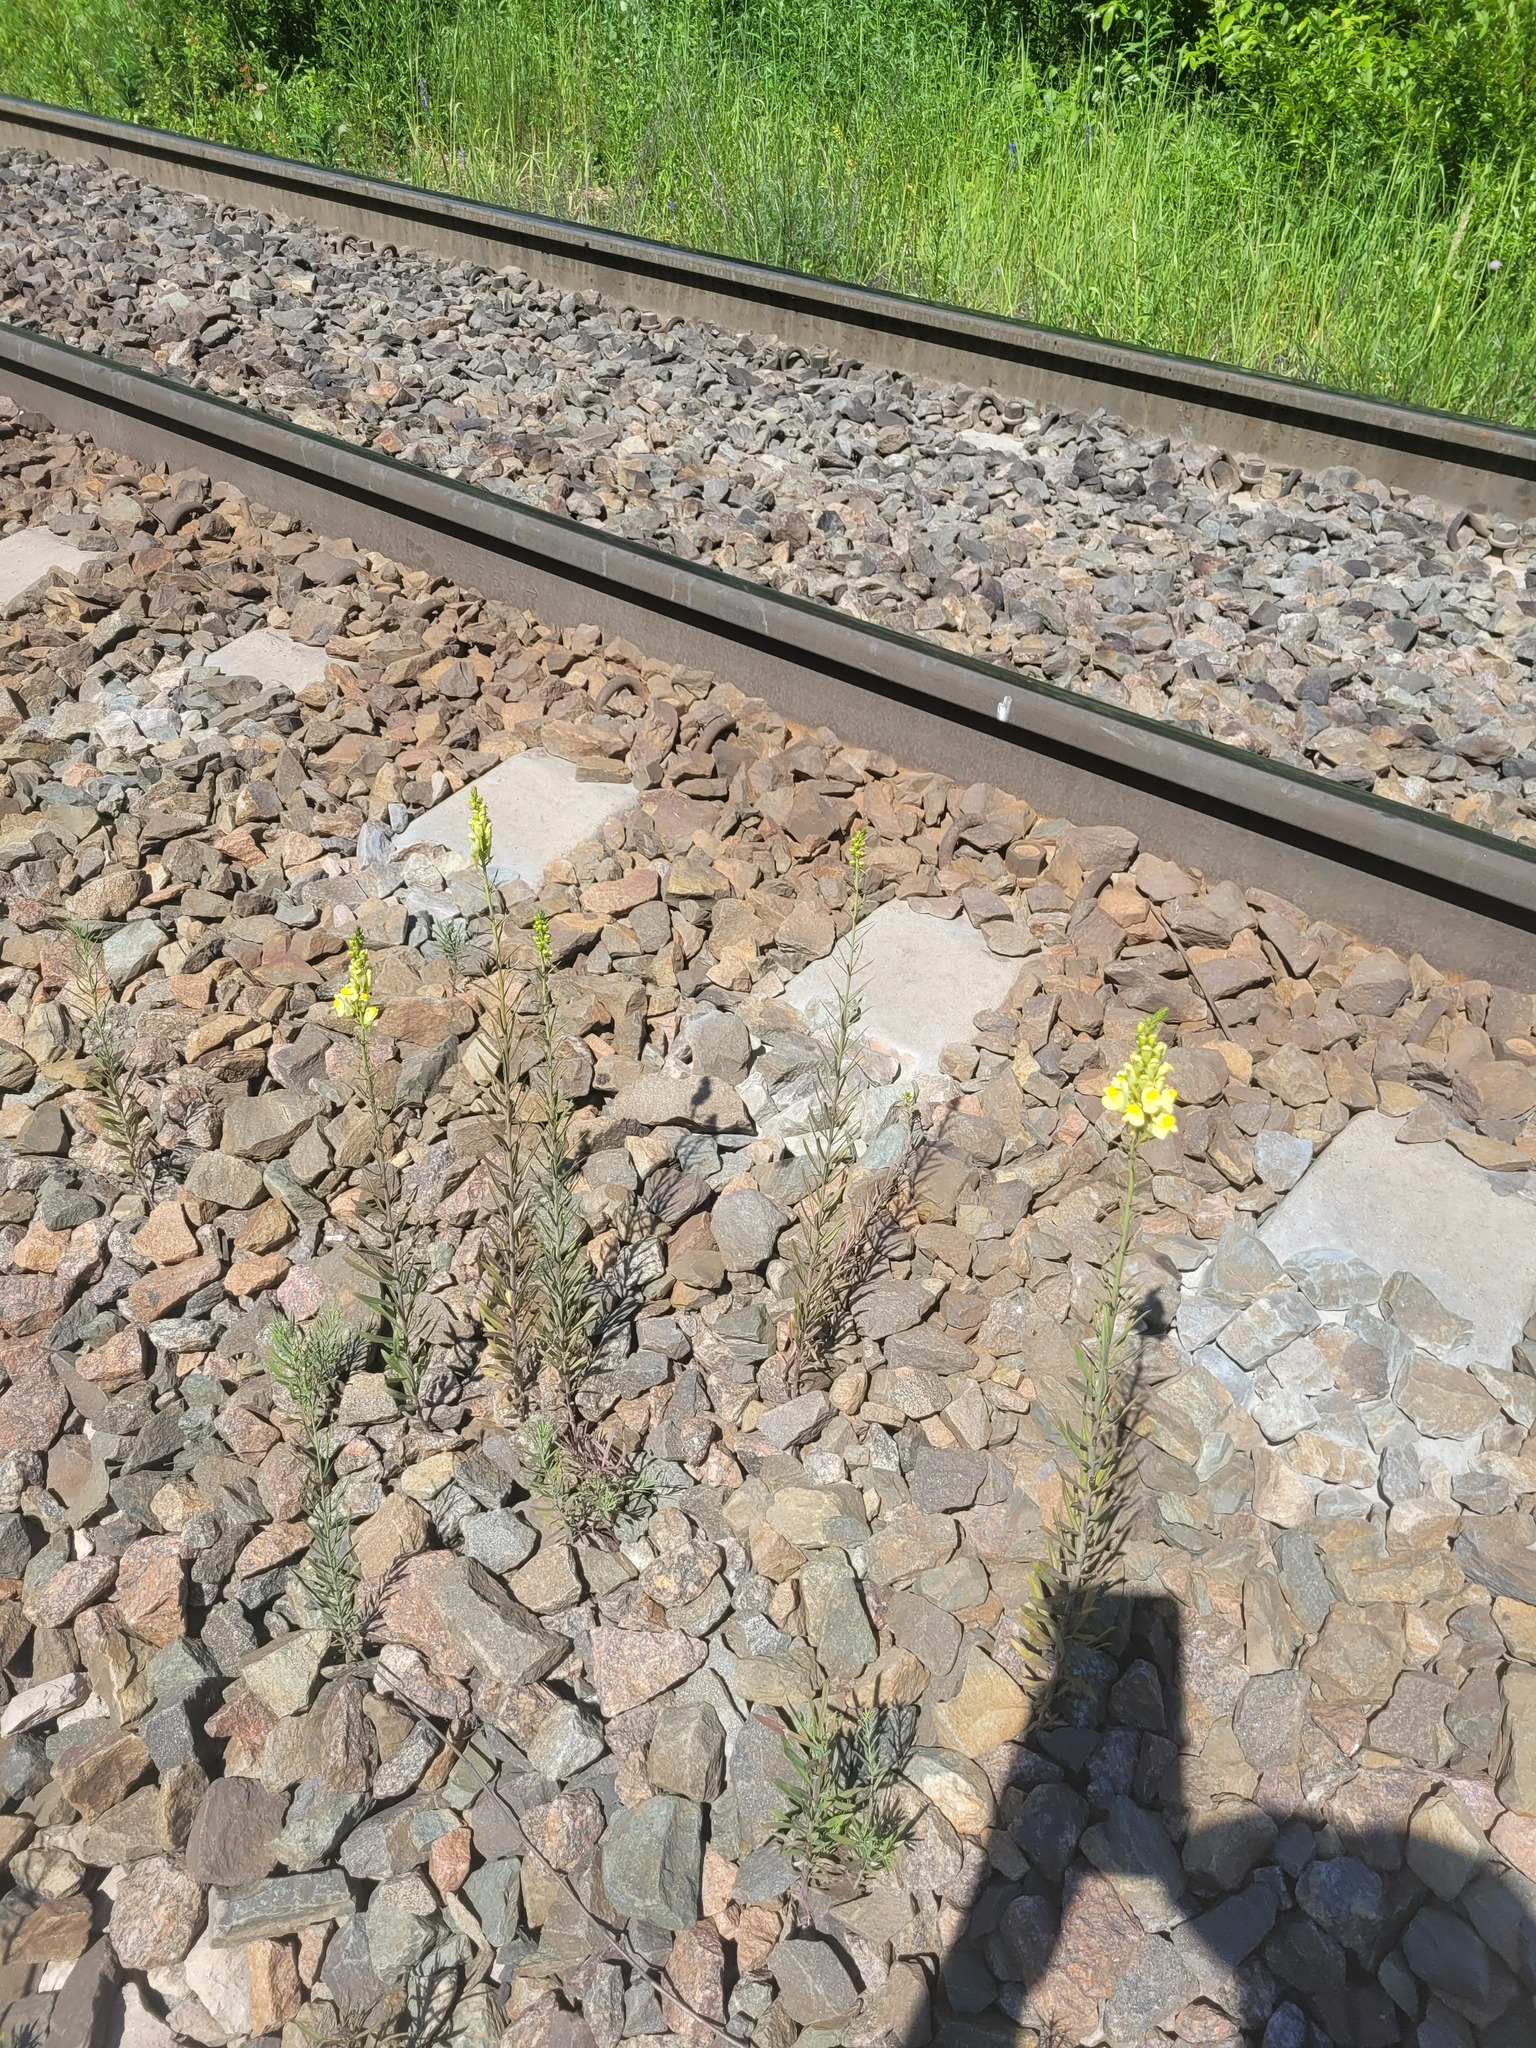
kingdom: Plantae
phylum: Tracheophyta
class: Magnoliopsida
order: Lamiales
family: Plantaginaceae
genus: Linaria
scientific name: Linaria vulgaris
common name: Butter and eggs
